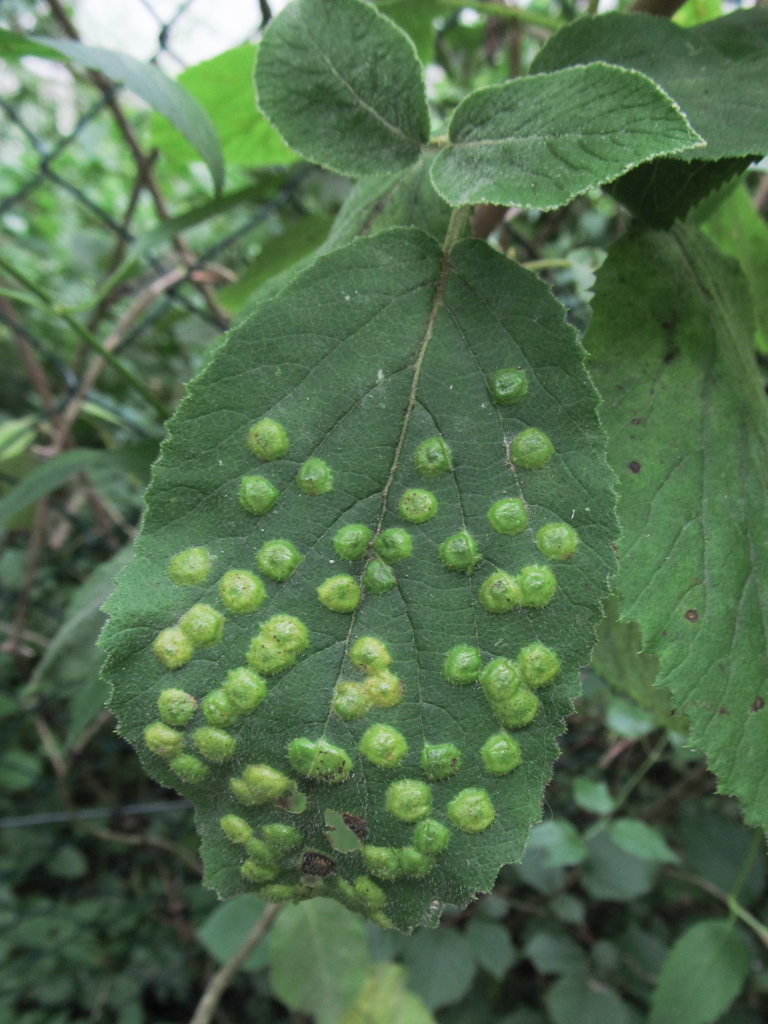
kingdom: Animalia
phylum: Arthropoda
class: Insecta
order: Diptera
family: Cecidomyiidae
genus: Sackenomyia
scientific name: Sackenomyia reaumurii
